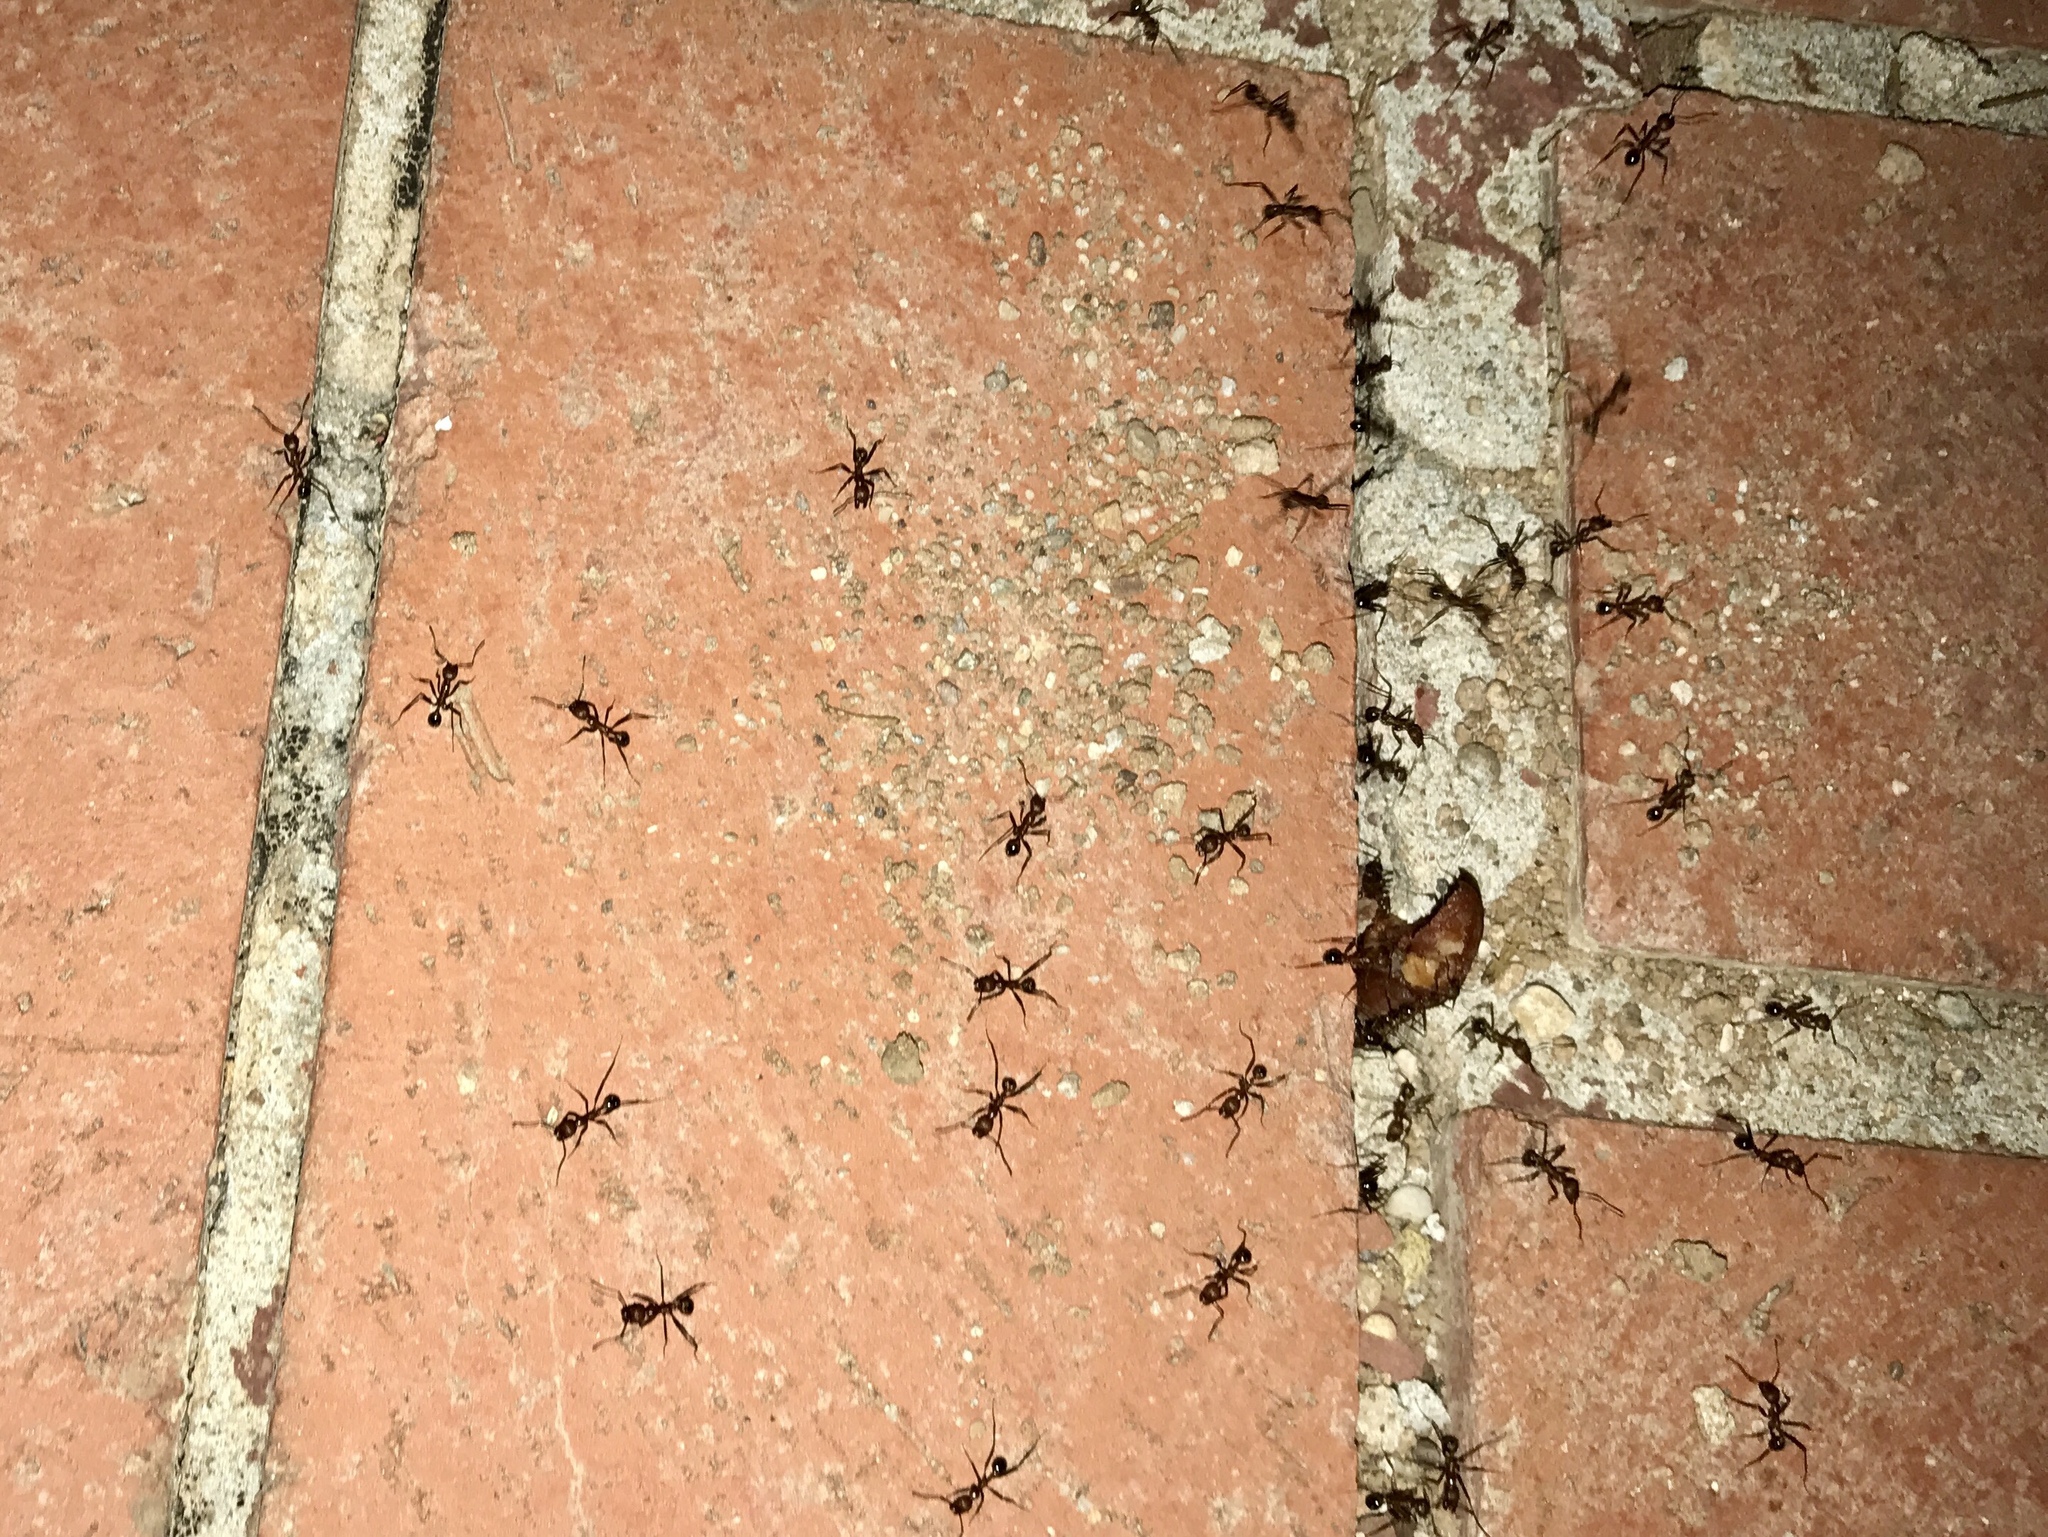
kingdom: Animalia
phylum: Arthropoda
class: Insecta
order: Hymenoptera
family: Formicidae
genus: Novomessor
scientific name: Novomessor albisetosa
